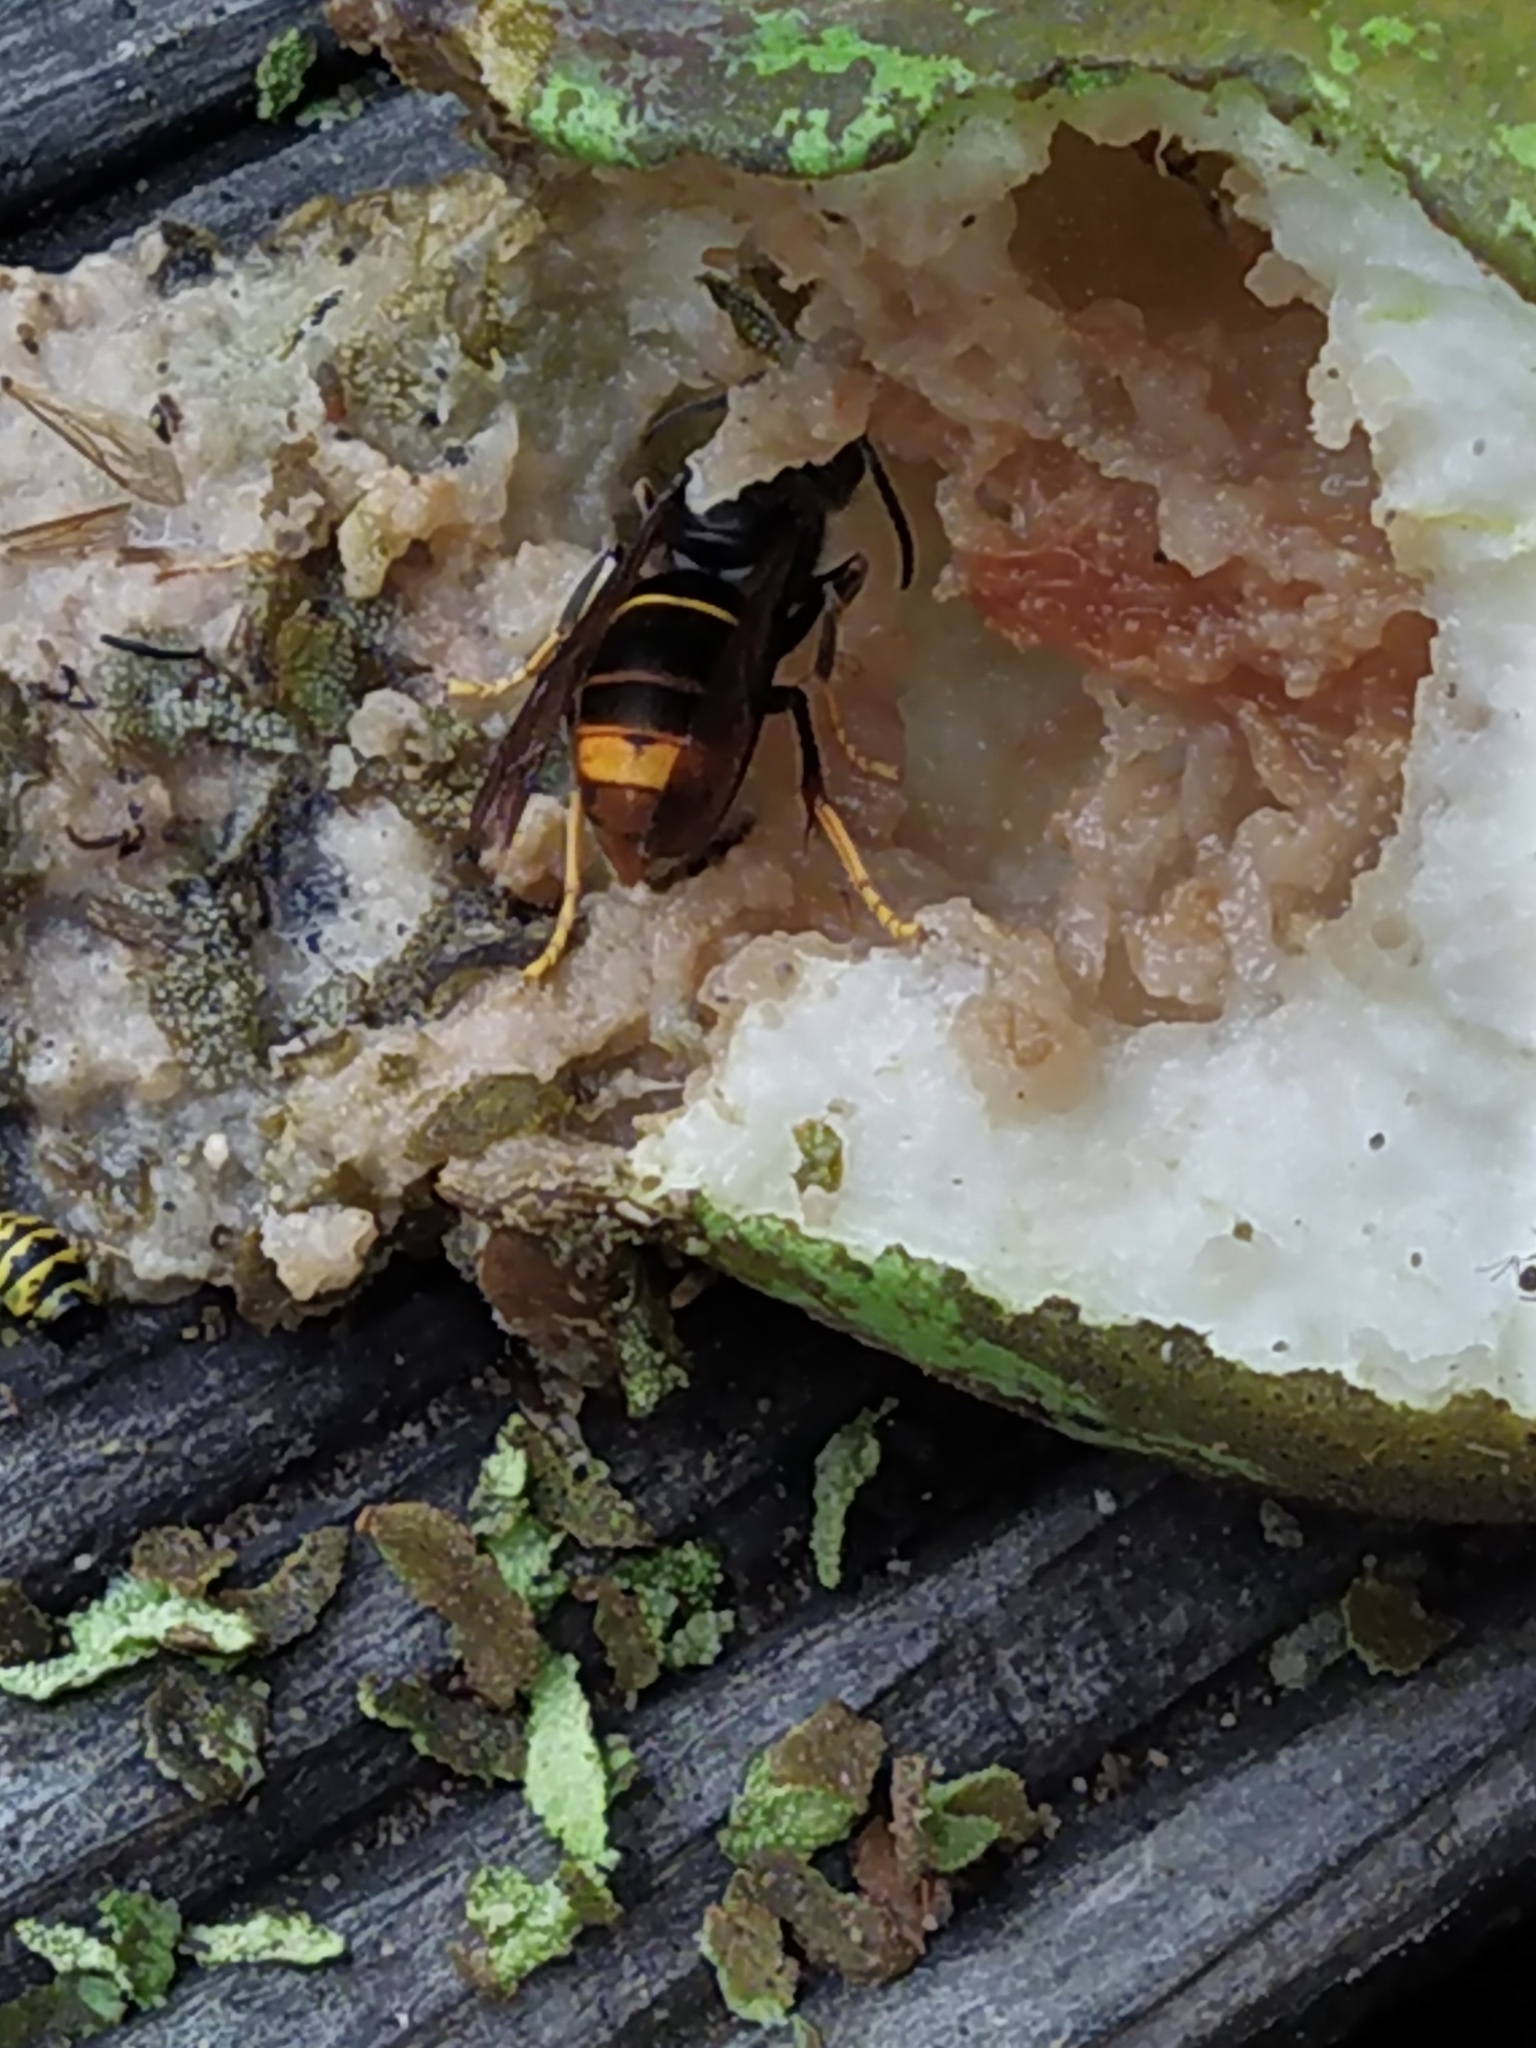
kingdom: Animalia
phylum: Arthropoda
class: Insecta
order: Hymenoptera
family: Vespidae
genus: Vespa
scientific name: Vespa velutina
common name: Asian hornet
